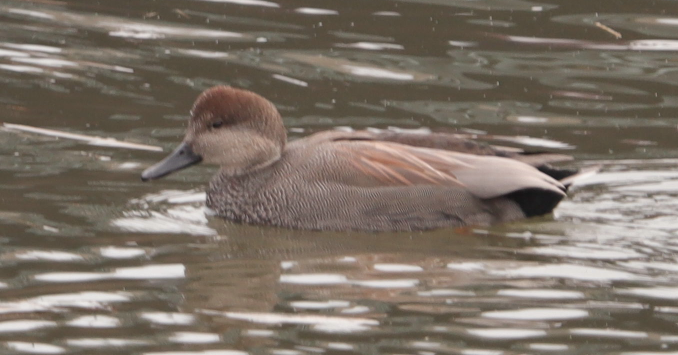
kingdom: Animalia
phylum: Chordata
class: Aves
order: Anseriformes
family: Anatidae
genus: Mareca
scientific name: Mareca strepera
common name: Gadwall
